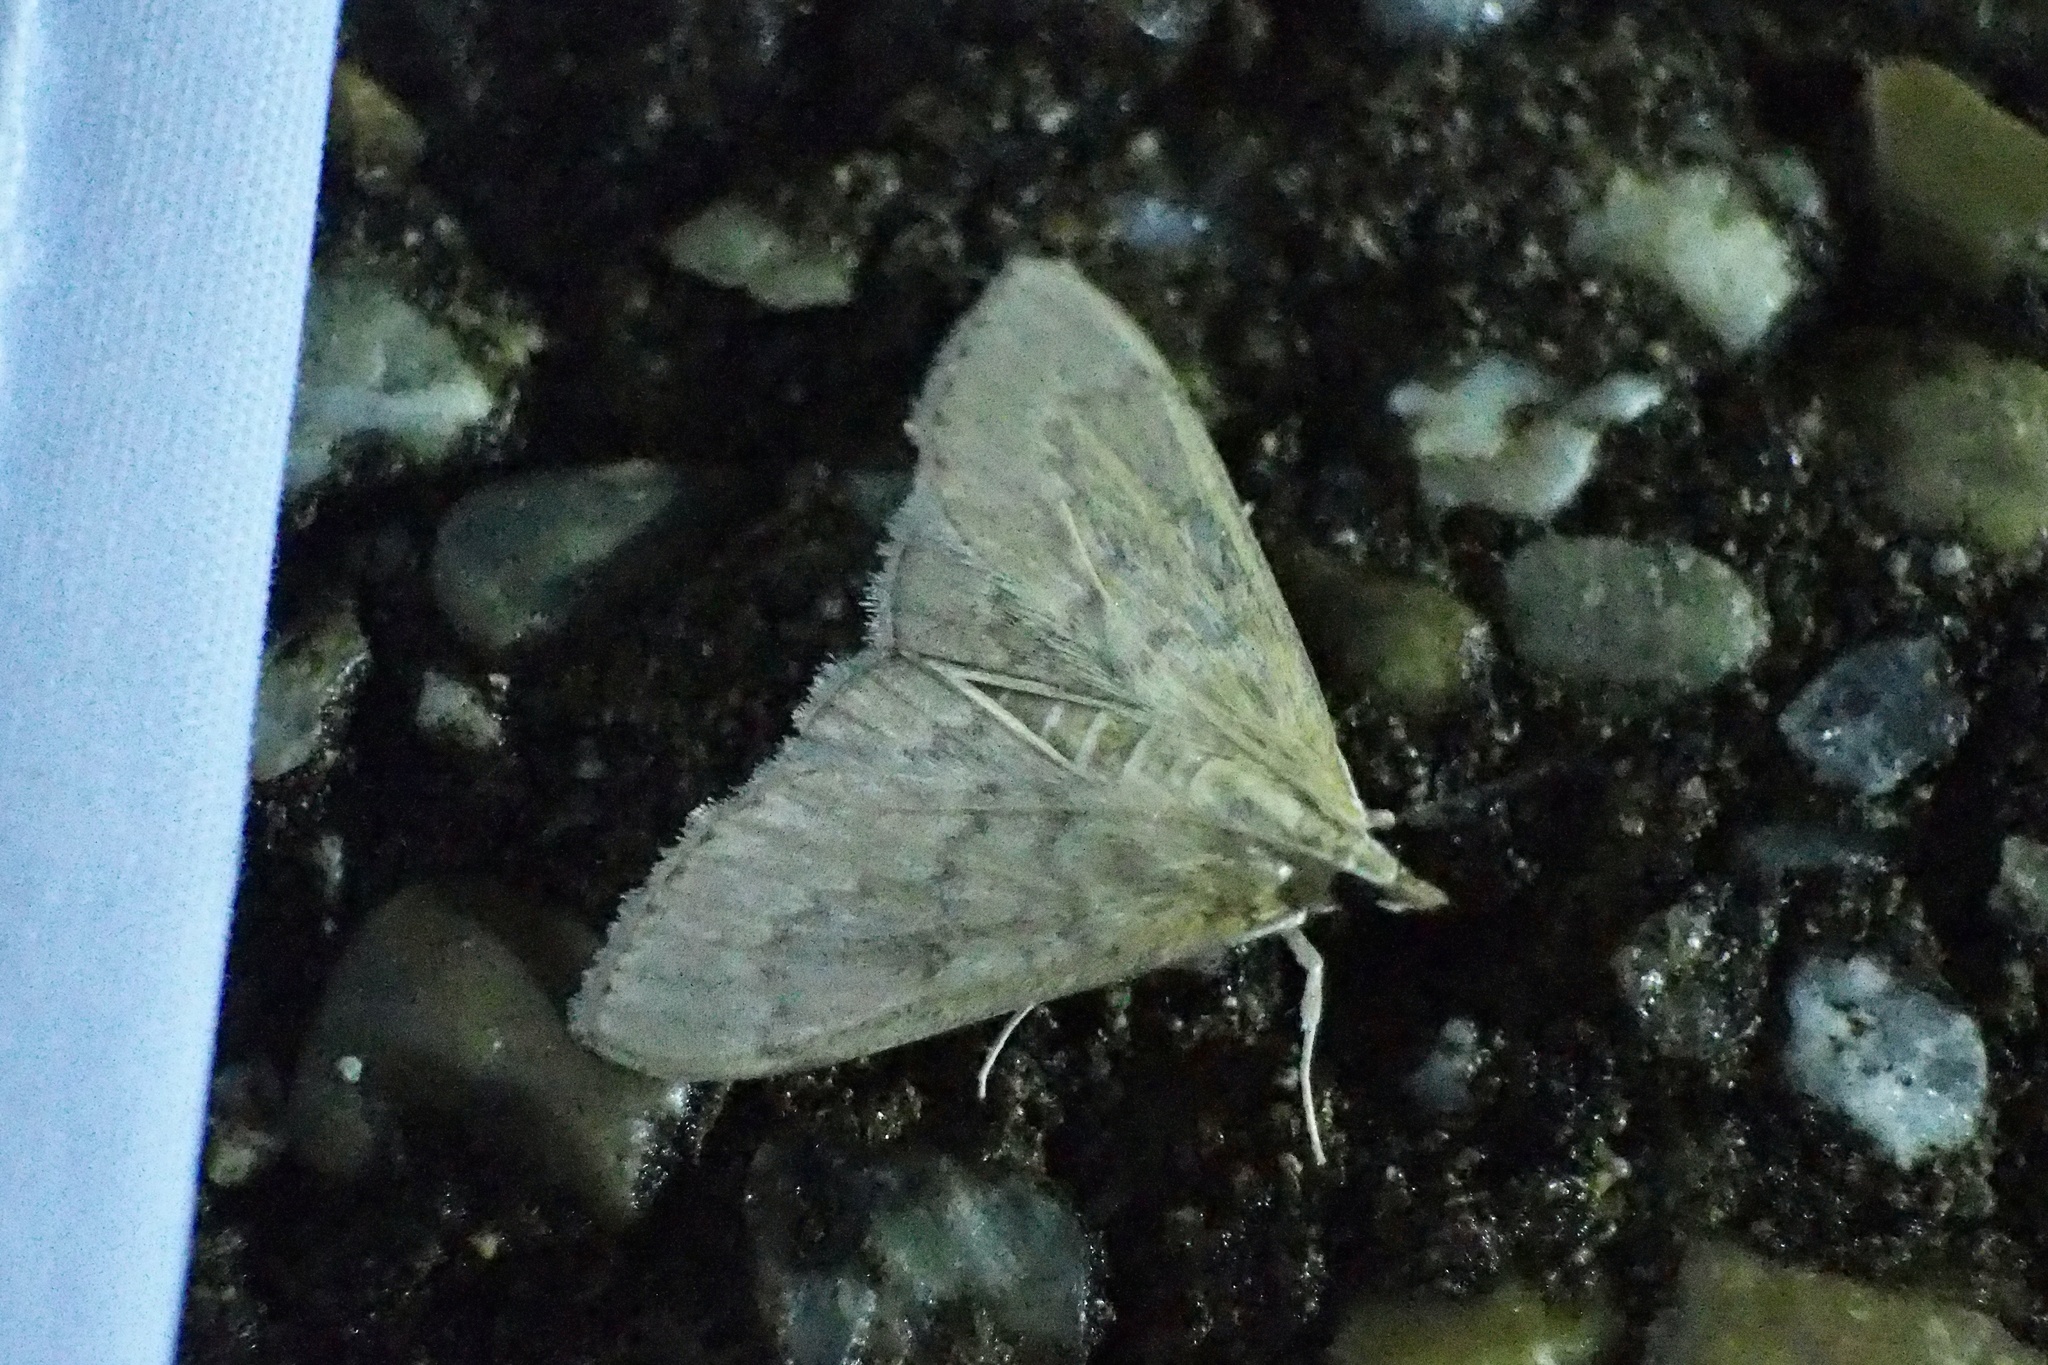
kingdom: Animalia
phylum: Arthropoda
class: Insecta
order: Lepidoptera
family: Crambidae
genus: Nomis
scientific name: Nomis albopedalis
